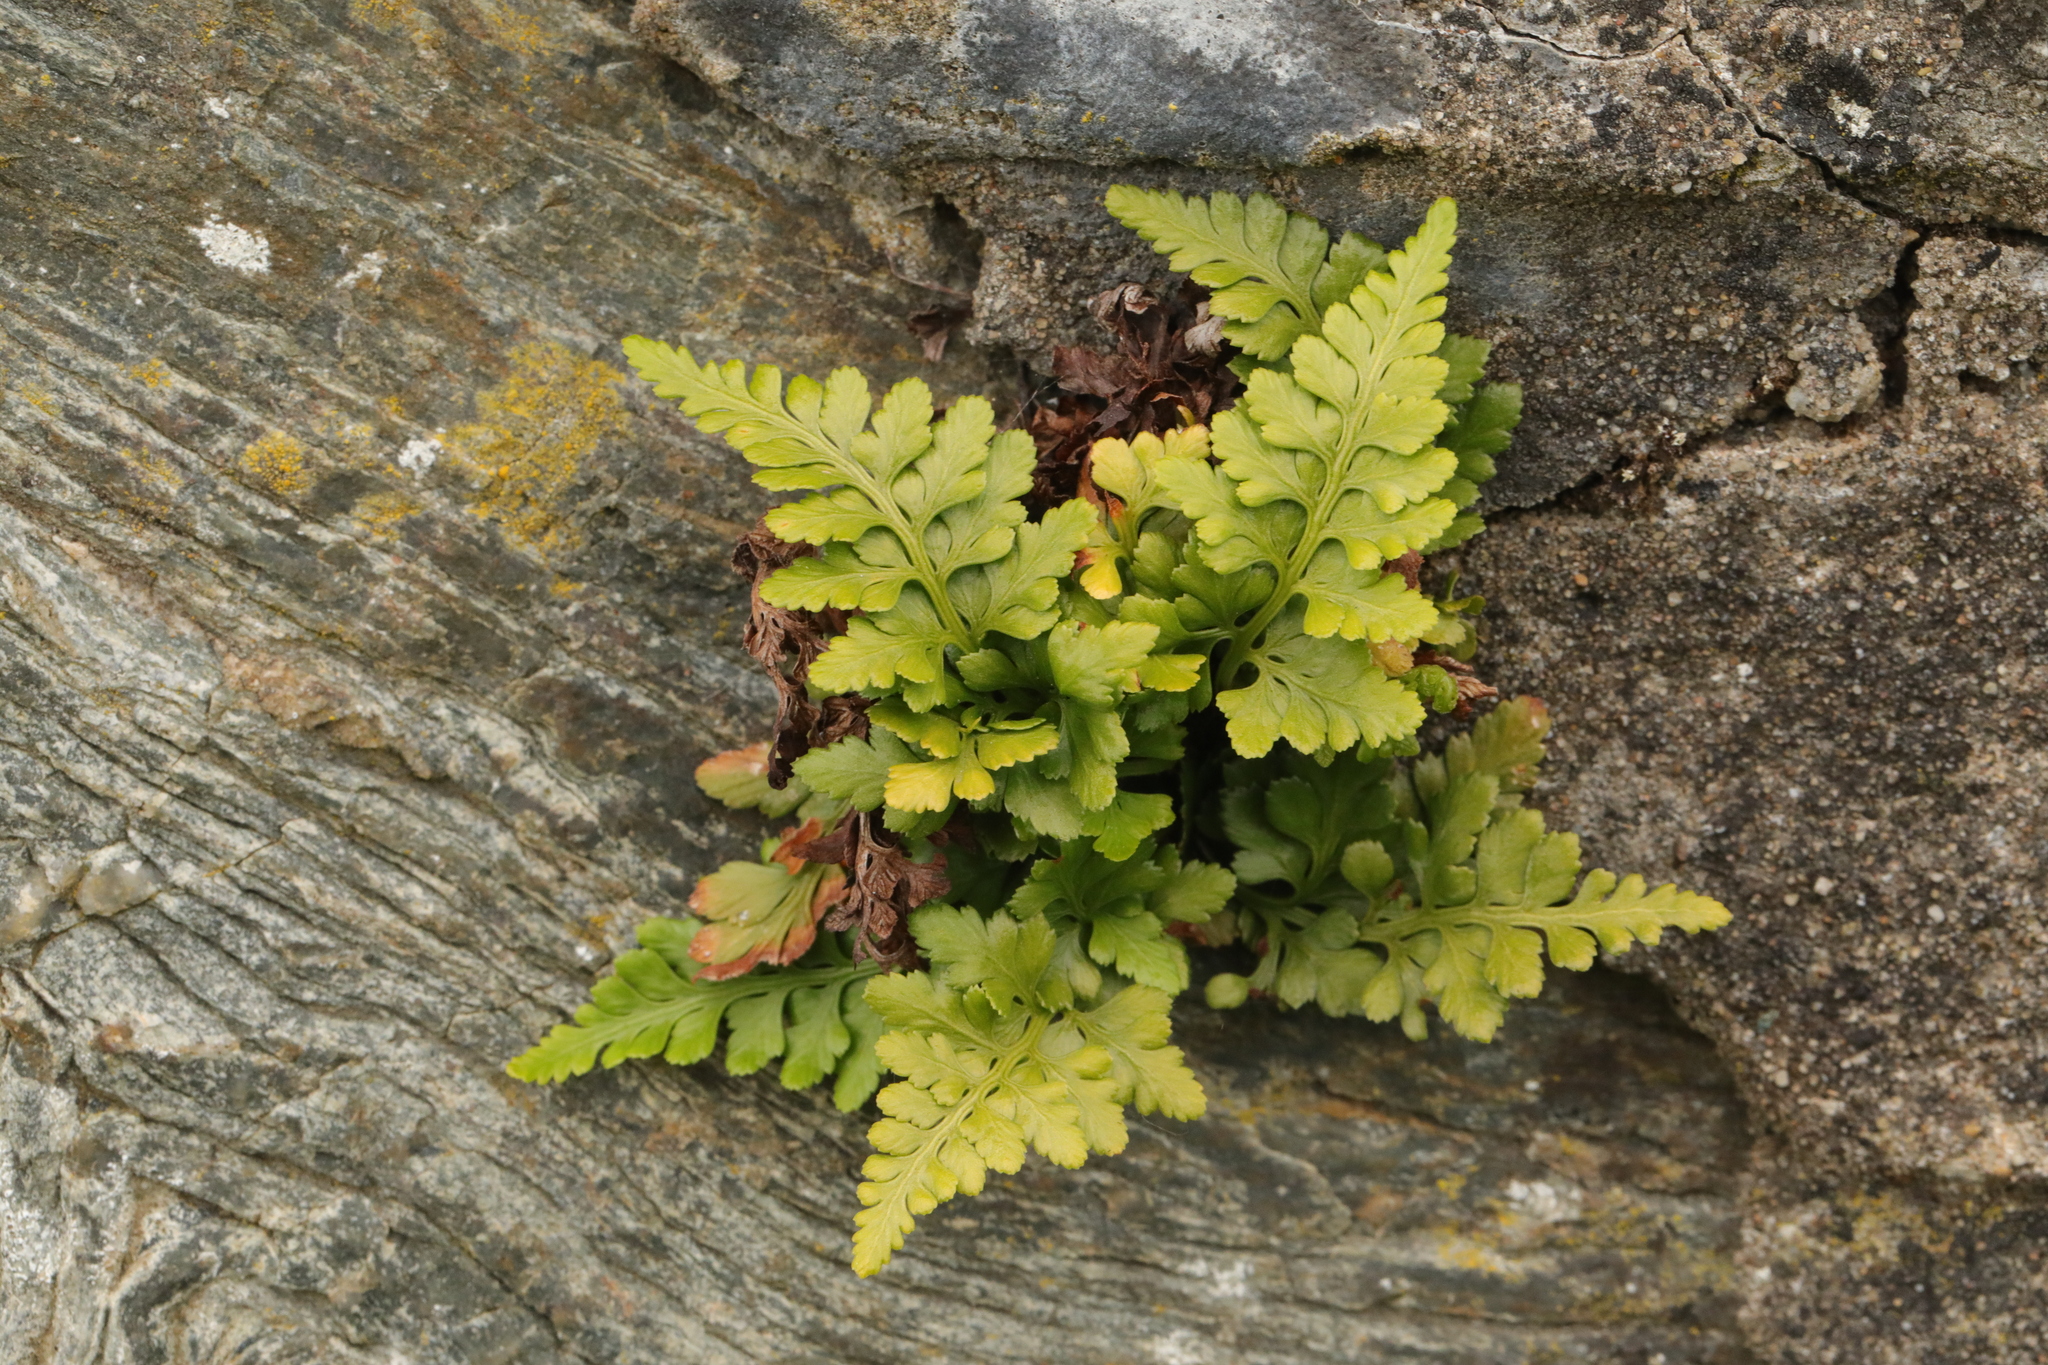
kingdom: Plantae
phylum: Tracheophyta
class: Polypodiopsida
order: Polypodiales
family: Aspleniaceae
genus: Asplenium
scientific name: Asplenium adiantum-nigrum
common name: Black spleenwort
